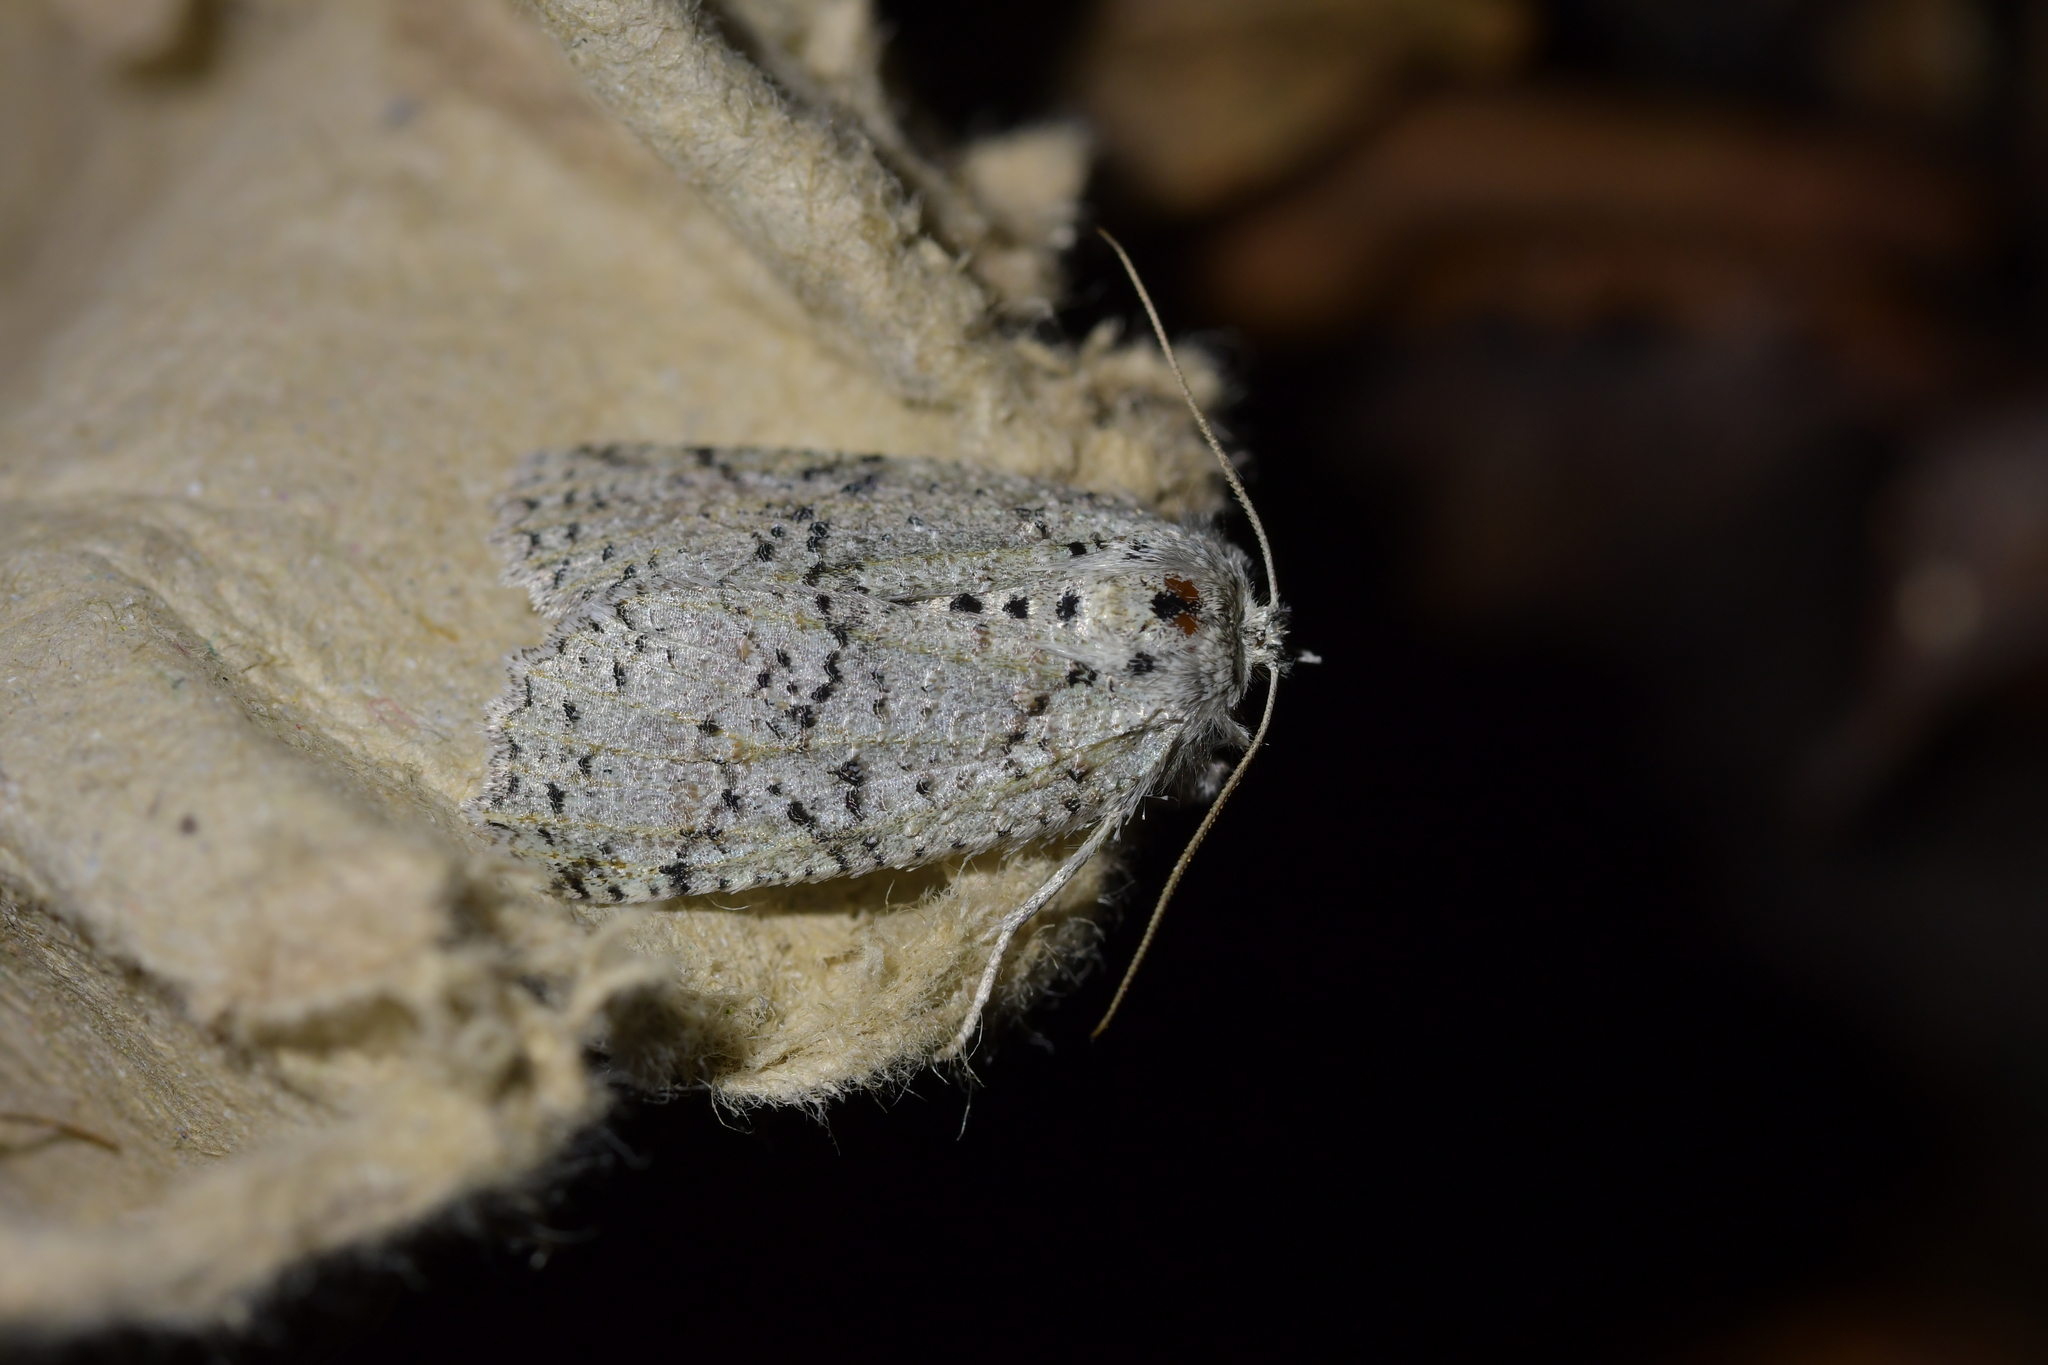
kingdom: Animalia
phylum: Arthropoda
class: Insecta
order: Lepidoptera
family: Geometridae
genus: Declana
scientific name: Declana floccosa
